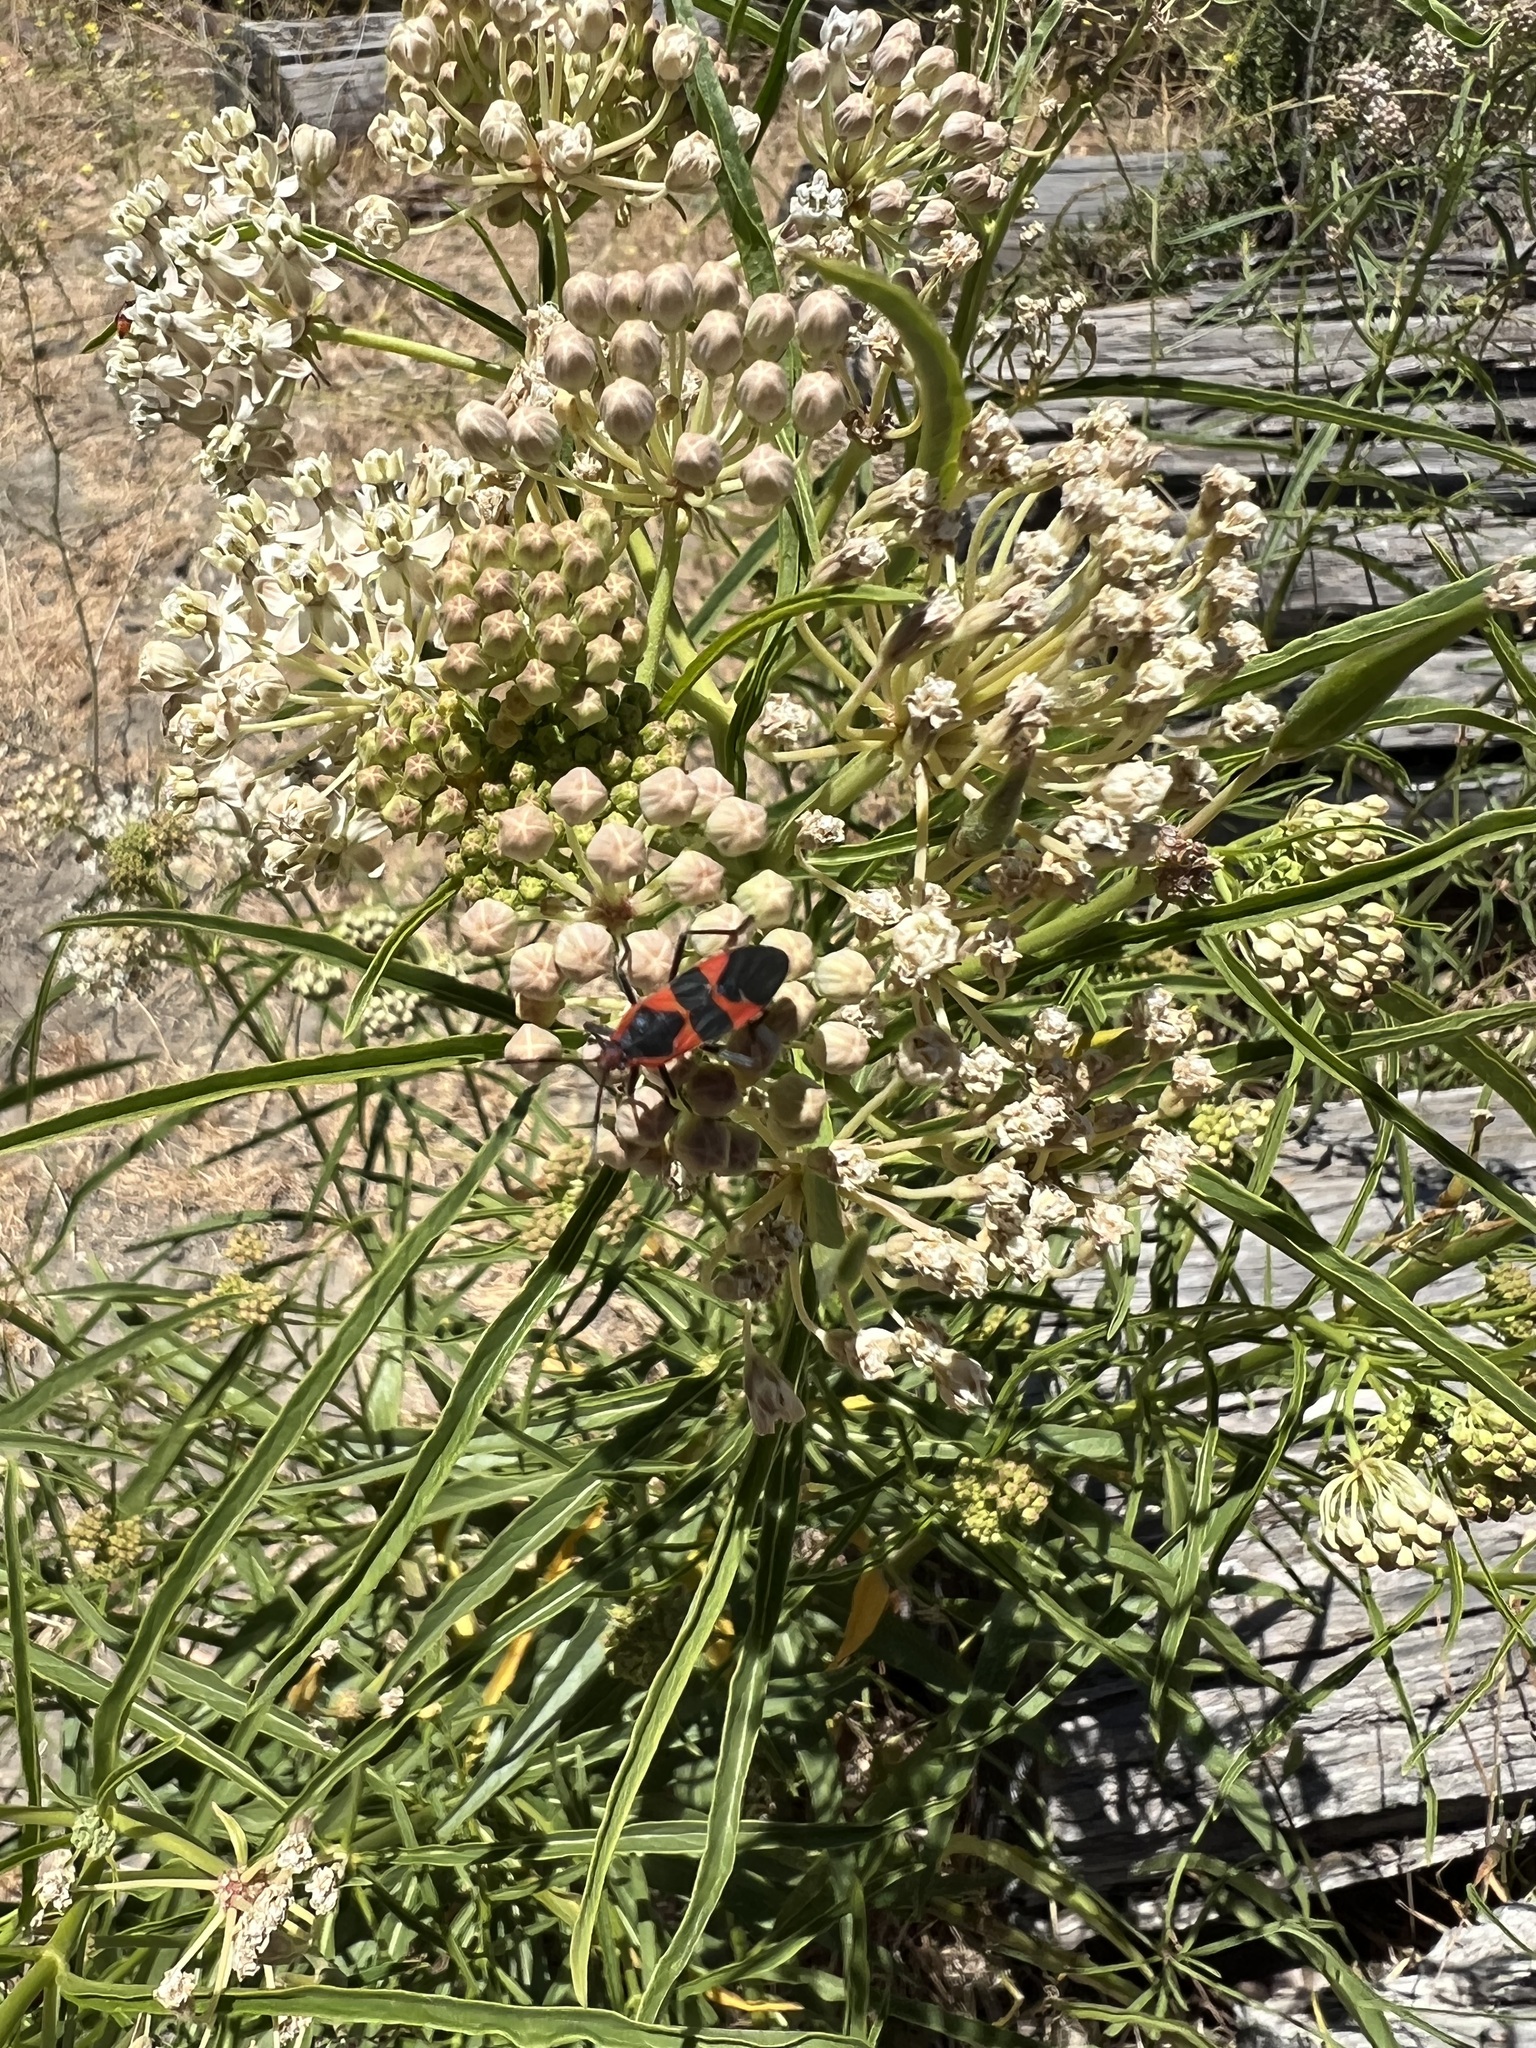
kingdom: Animalia
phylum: Arthropoda
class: Insecta
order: Hemiptera
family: Lygaeidae
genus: Oncopeltus
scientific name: Oncopeltus fasciatus
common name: Large milkweed bug
